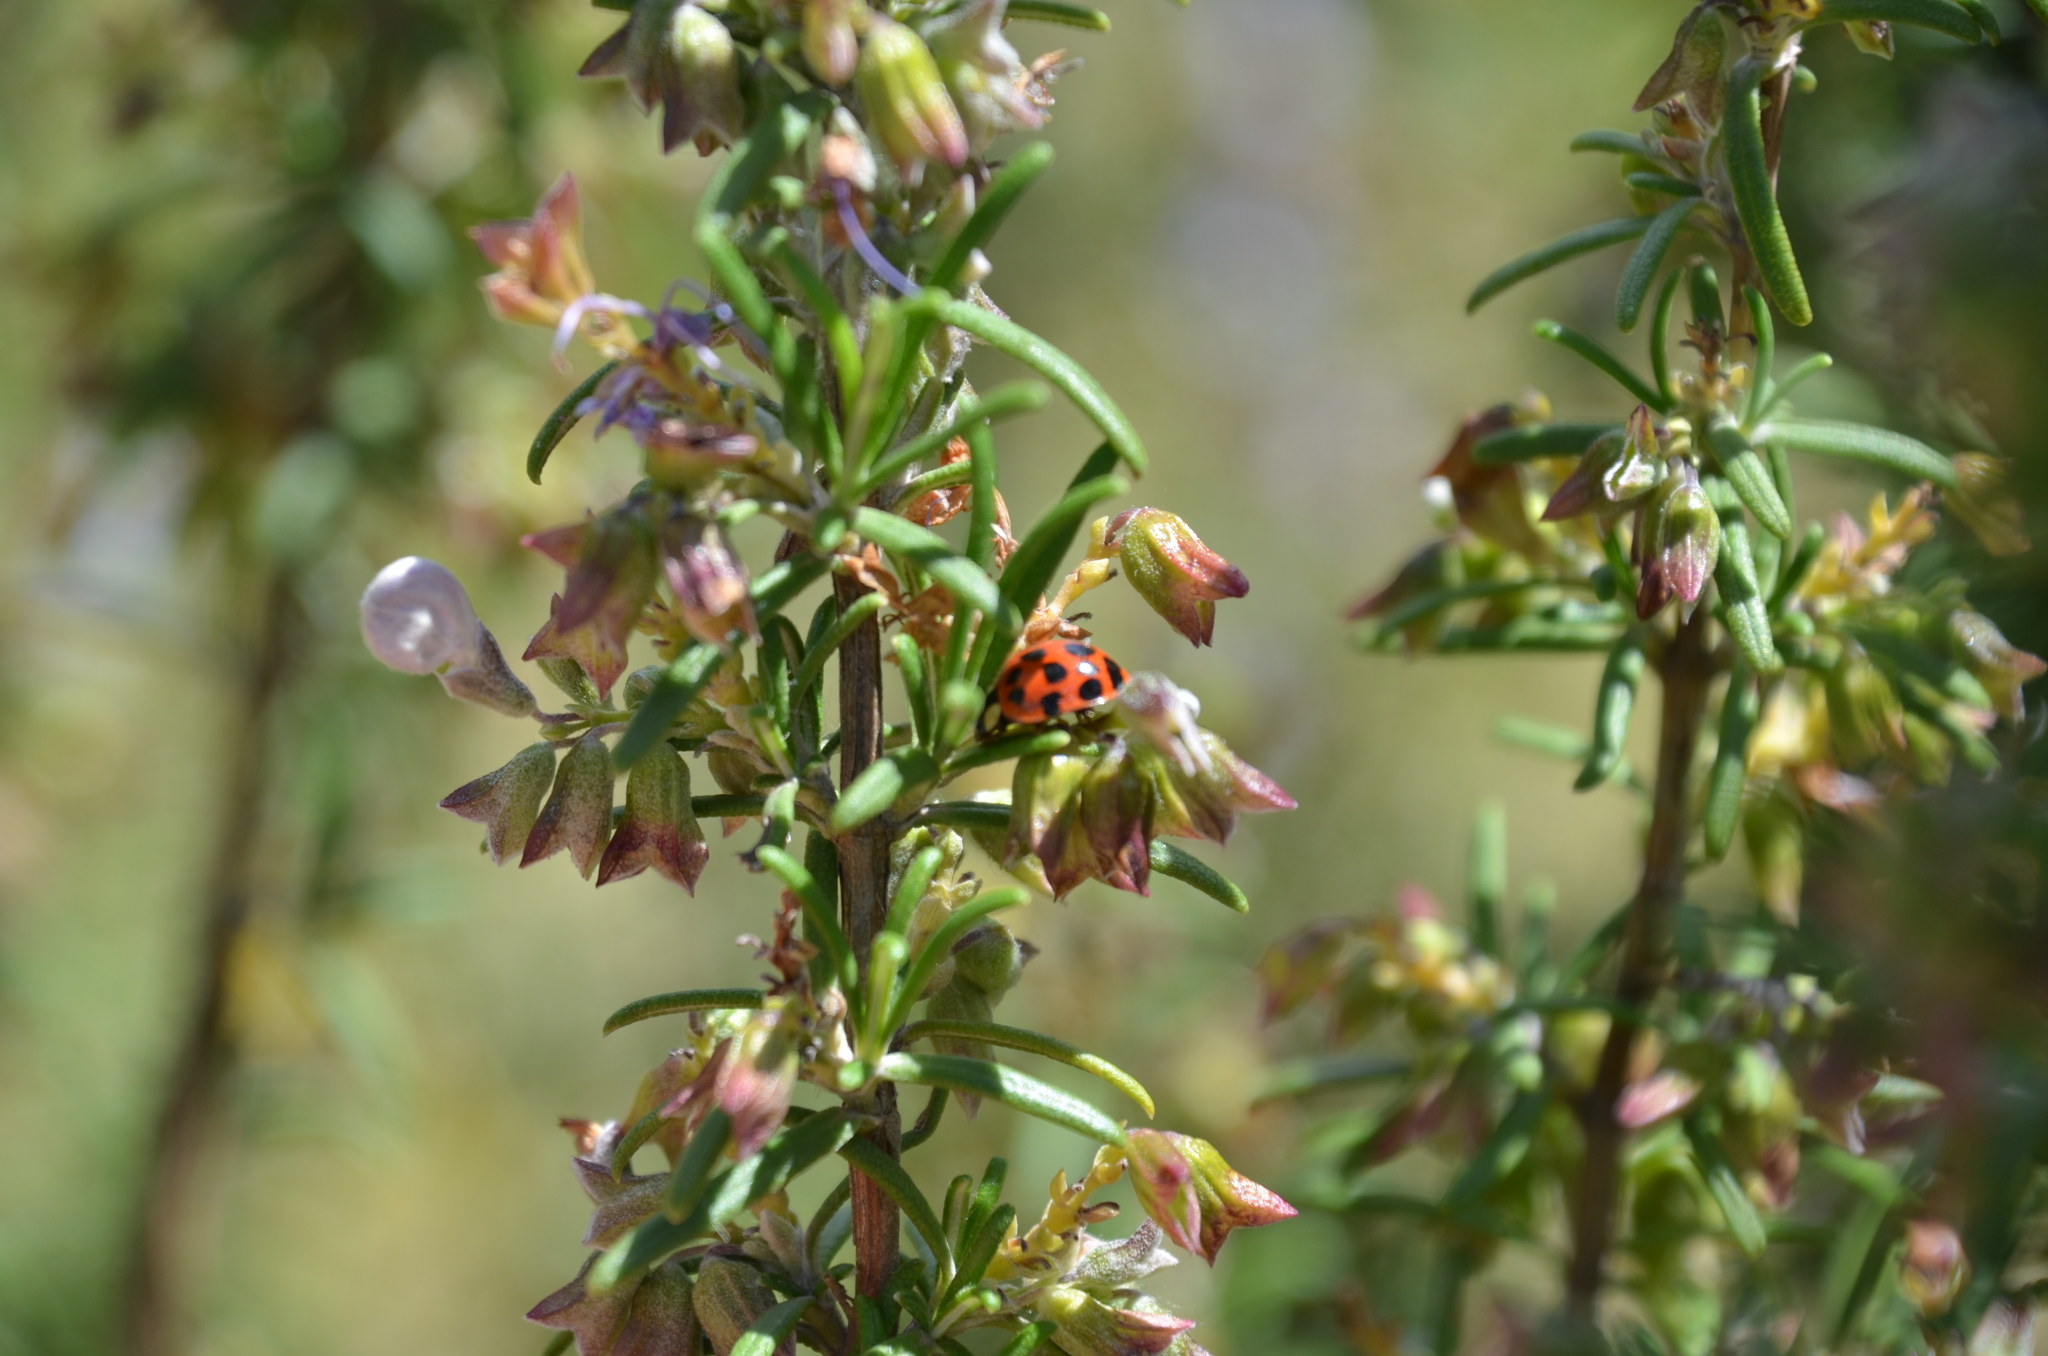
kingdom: Animalia
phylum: Arthropoda
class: Insecta
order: Coleoptera
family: Coccinellidae
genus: Harmonia
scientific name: Harmonia axyridis
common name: Harlequin ladybird
